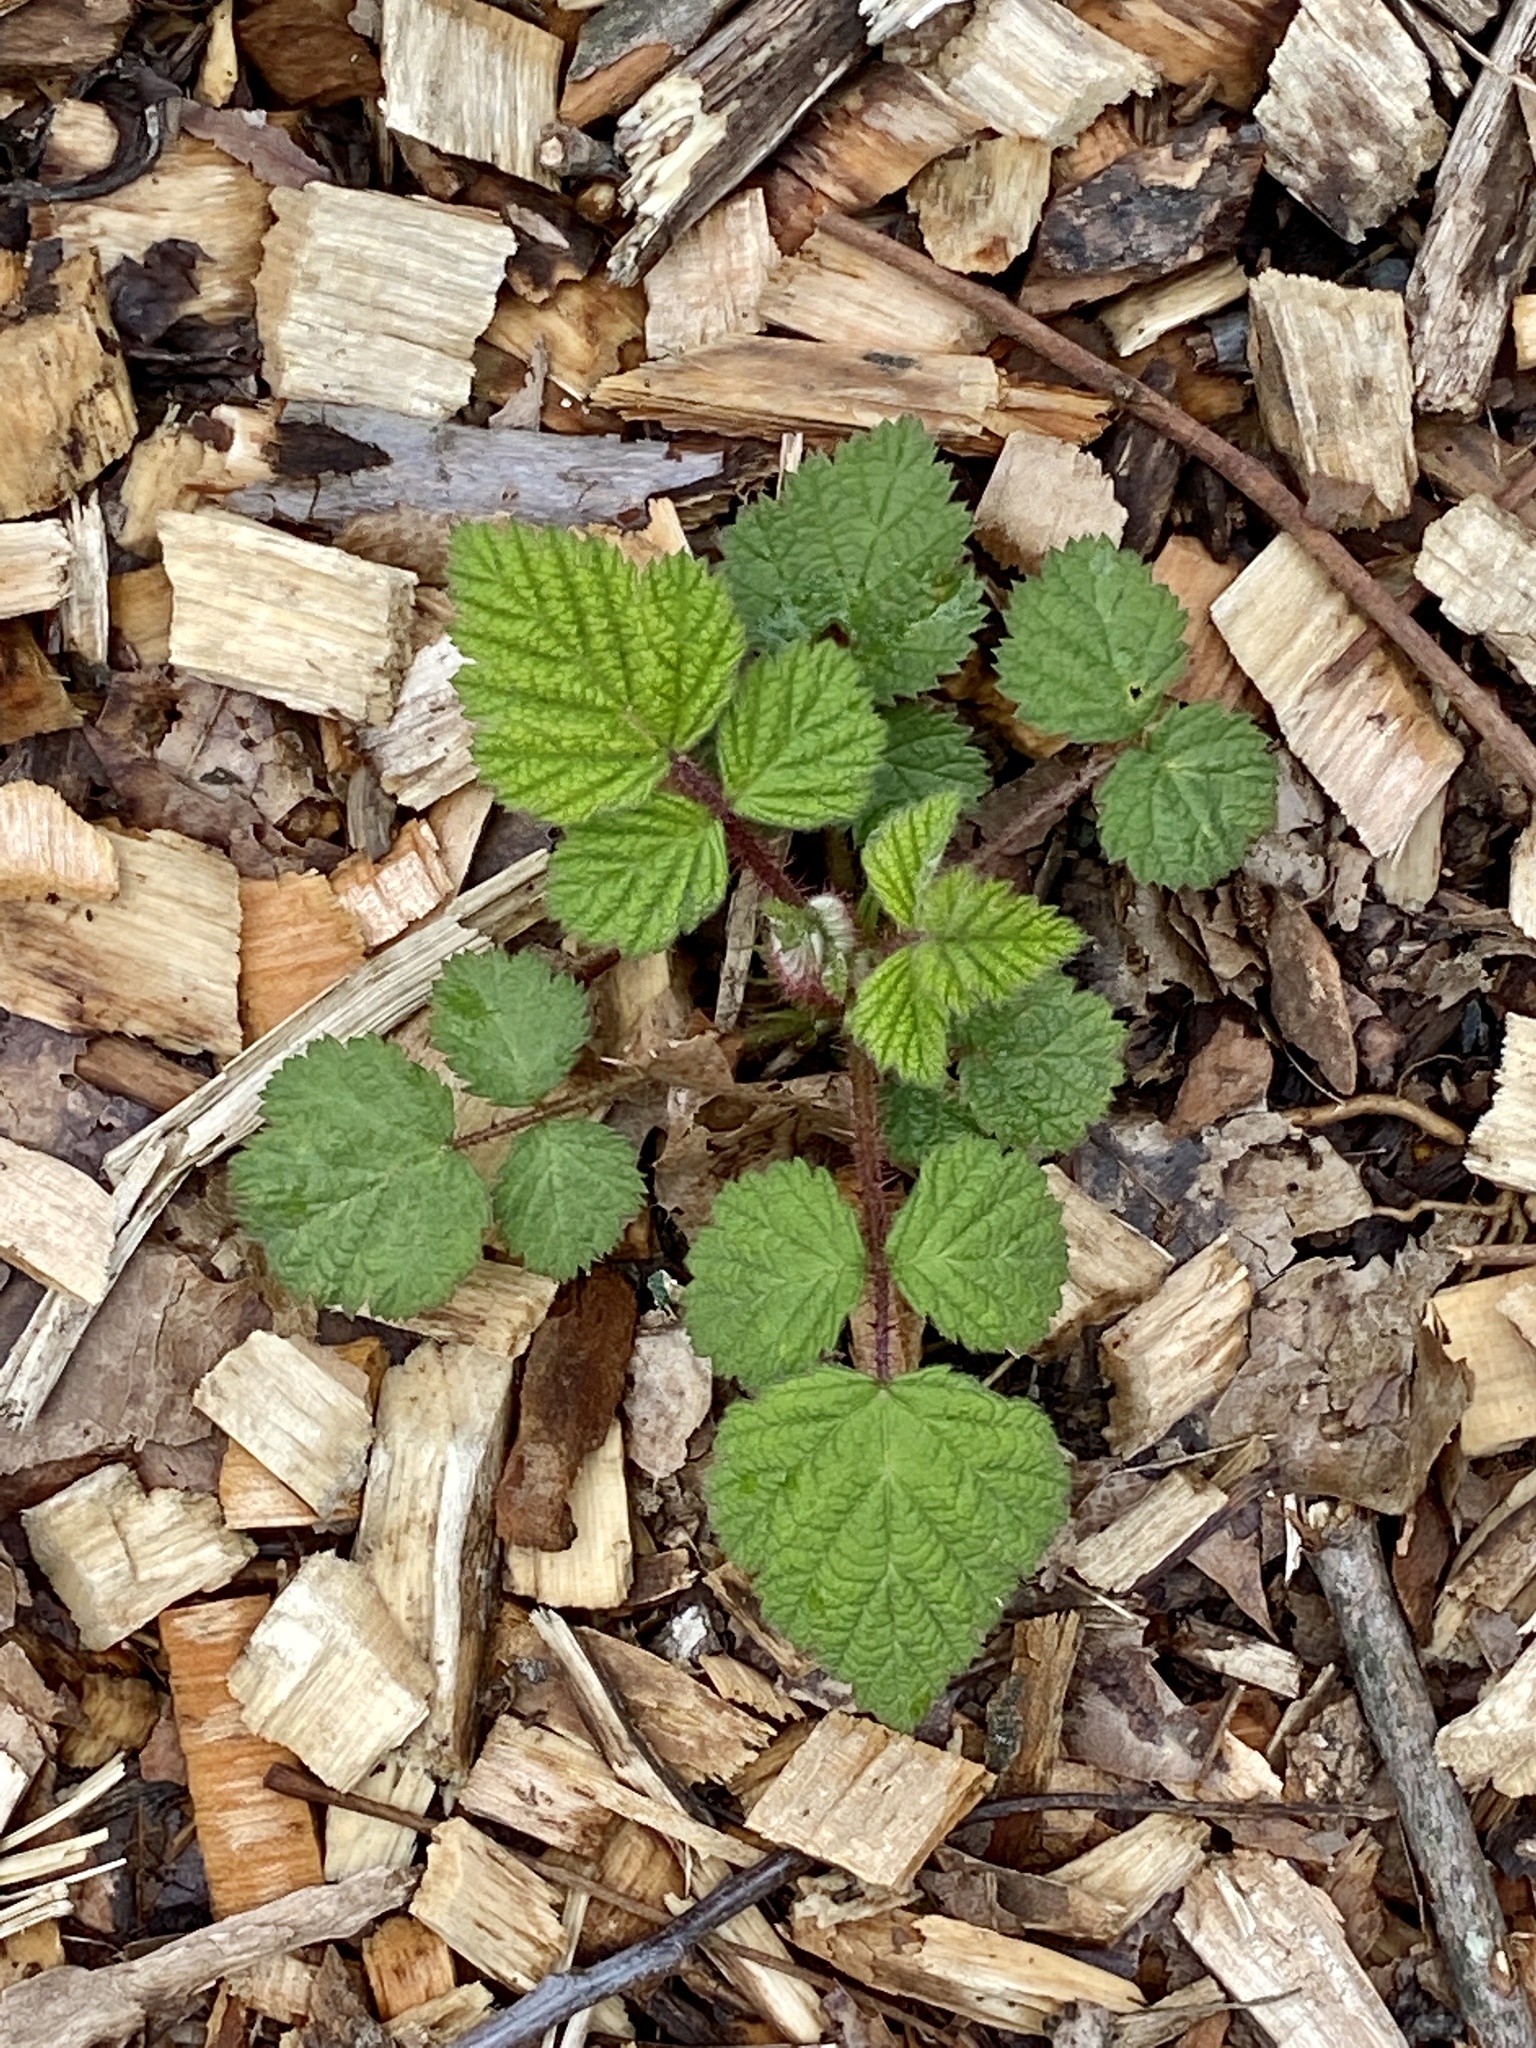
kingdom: Plantae
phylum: Tracheophyta
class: Magnoliopsida
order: Rosales
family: Rosaceae
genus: Rubus
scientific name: Rubus phoenicolasius
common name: Japanese wineberry
